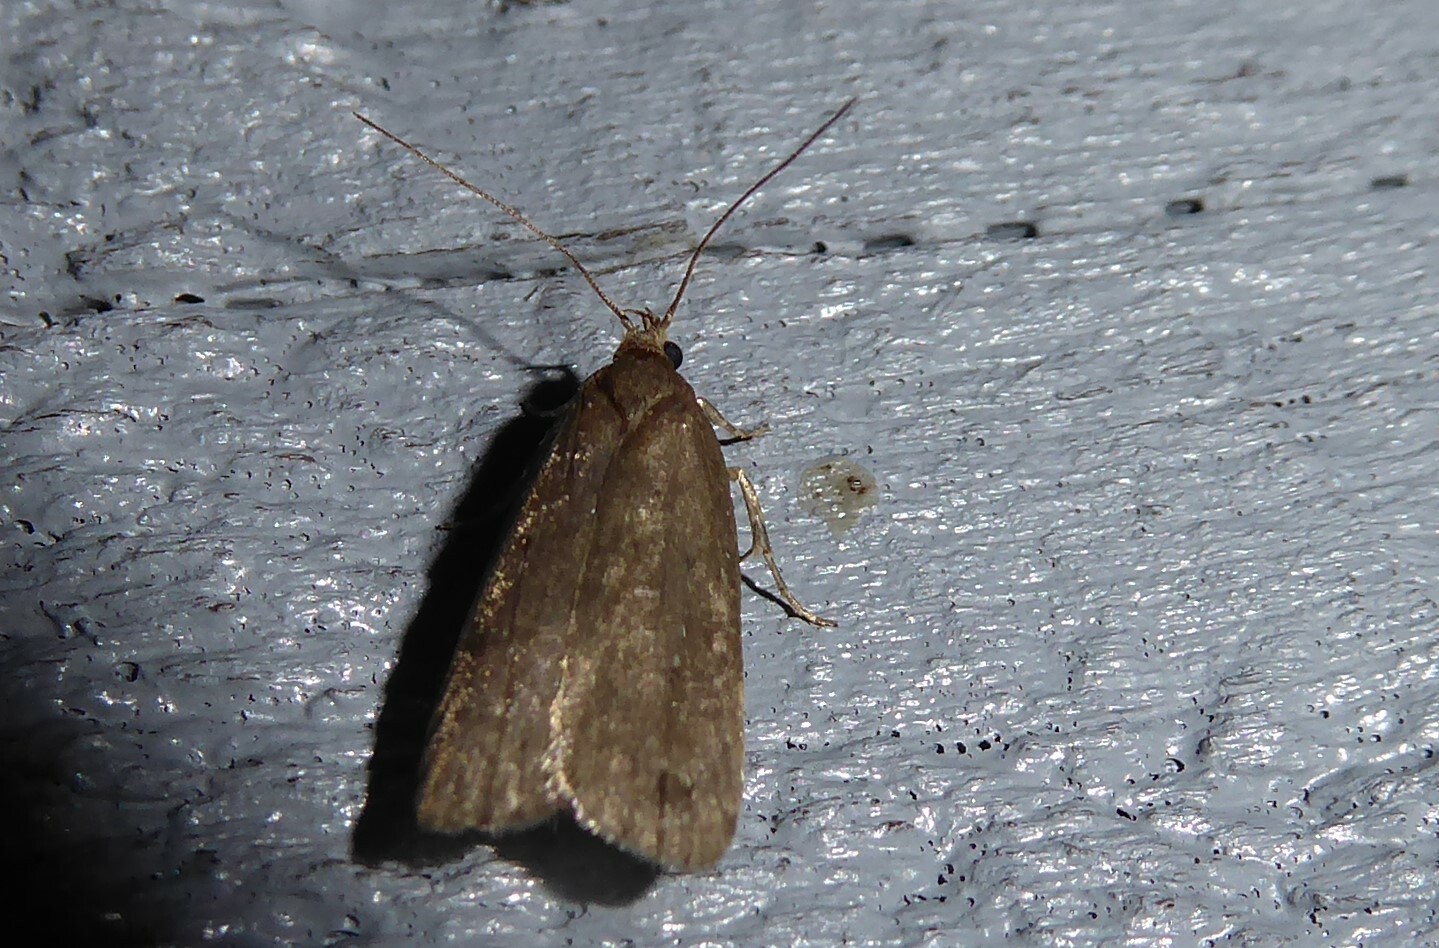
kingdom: Animalia
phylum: Arthropoda
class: Insecta
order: Lepidoptera
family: Depressariidae
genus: Phaeosaces
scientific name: Phaeosaces apocrypta
